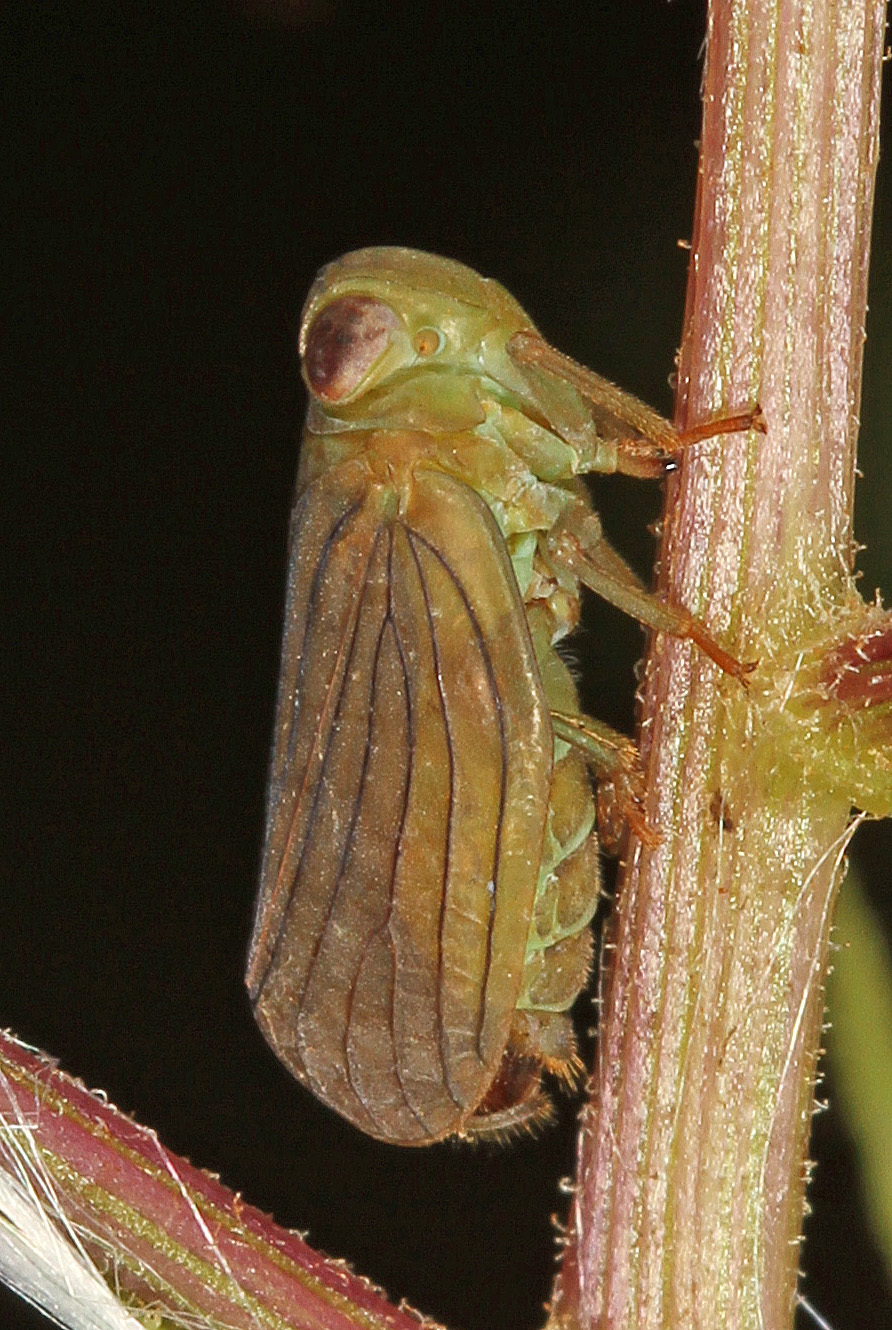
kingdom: Animalia
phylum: Arthropoda
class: Insecta
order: Hemiptera
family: Issidae
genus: Aplos
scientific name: Aplos simplex
